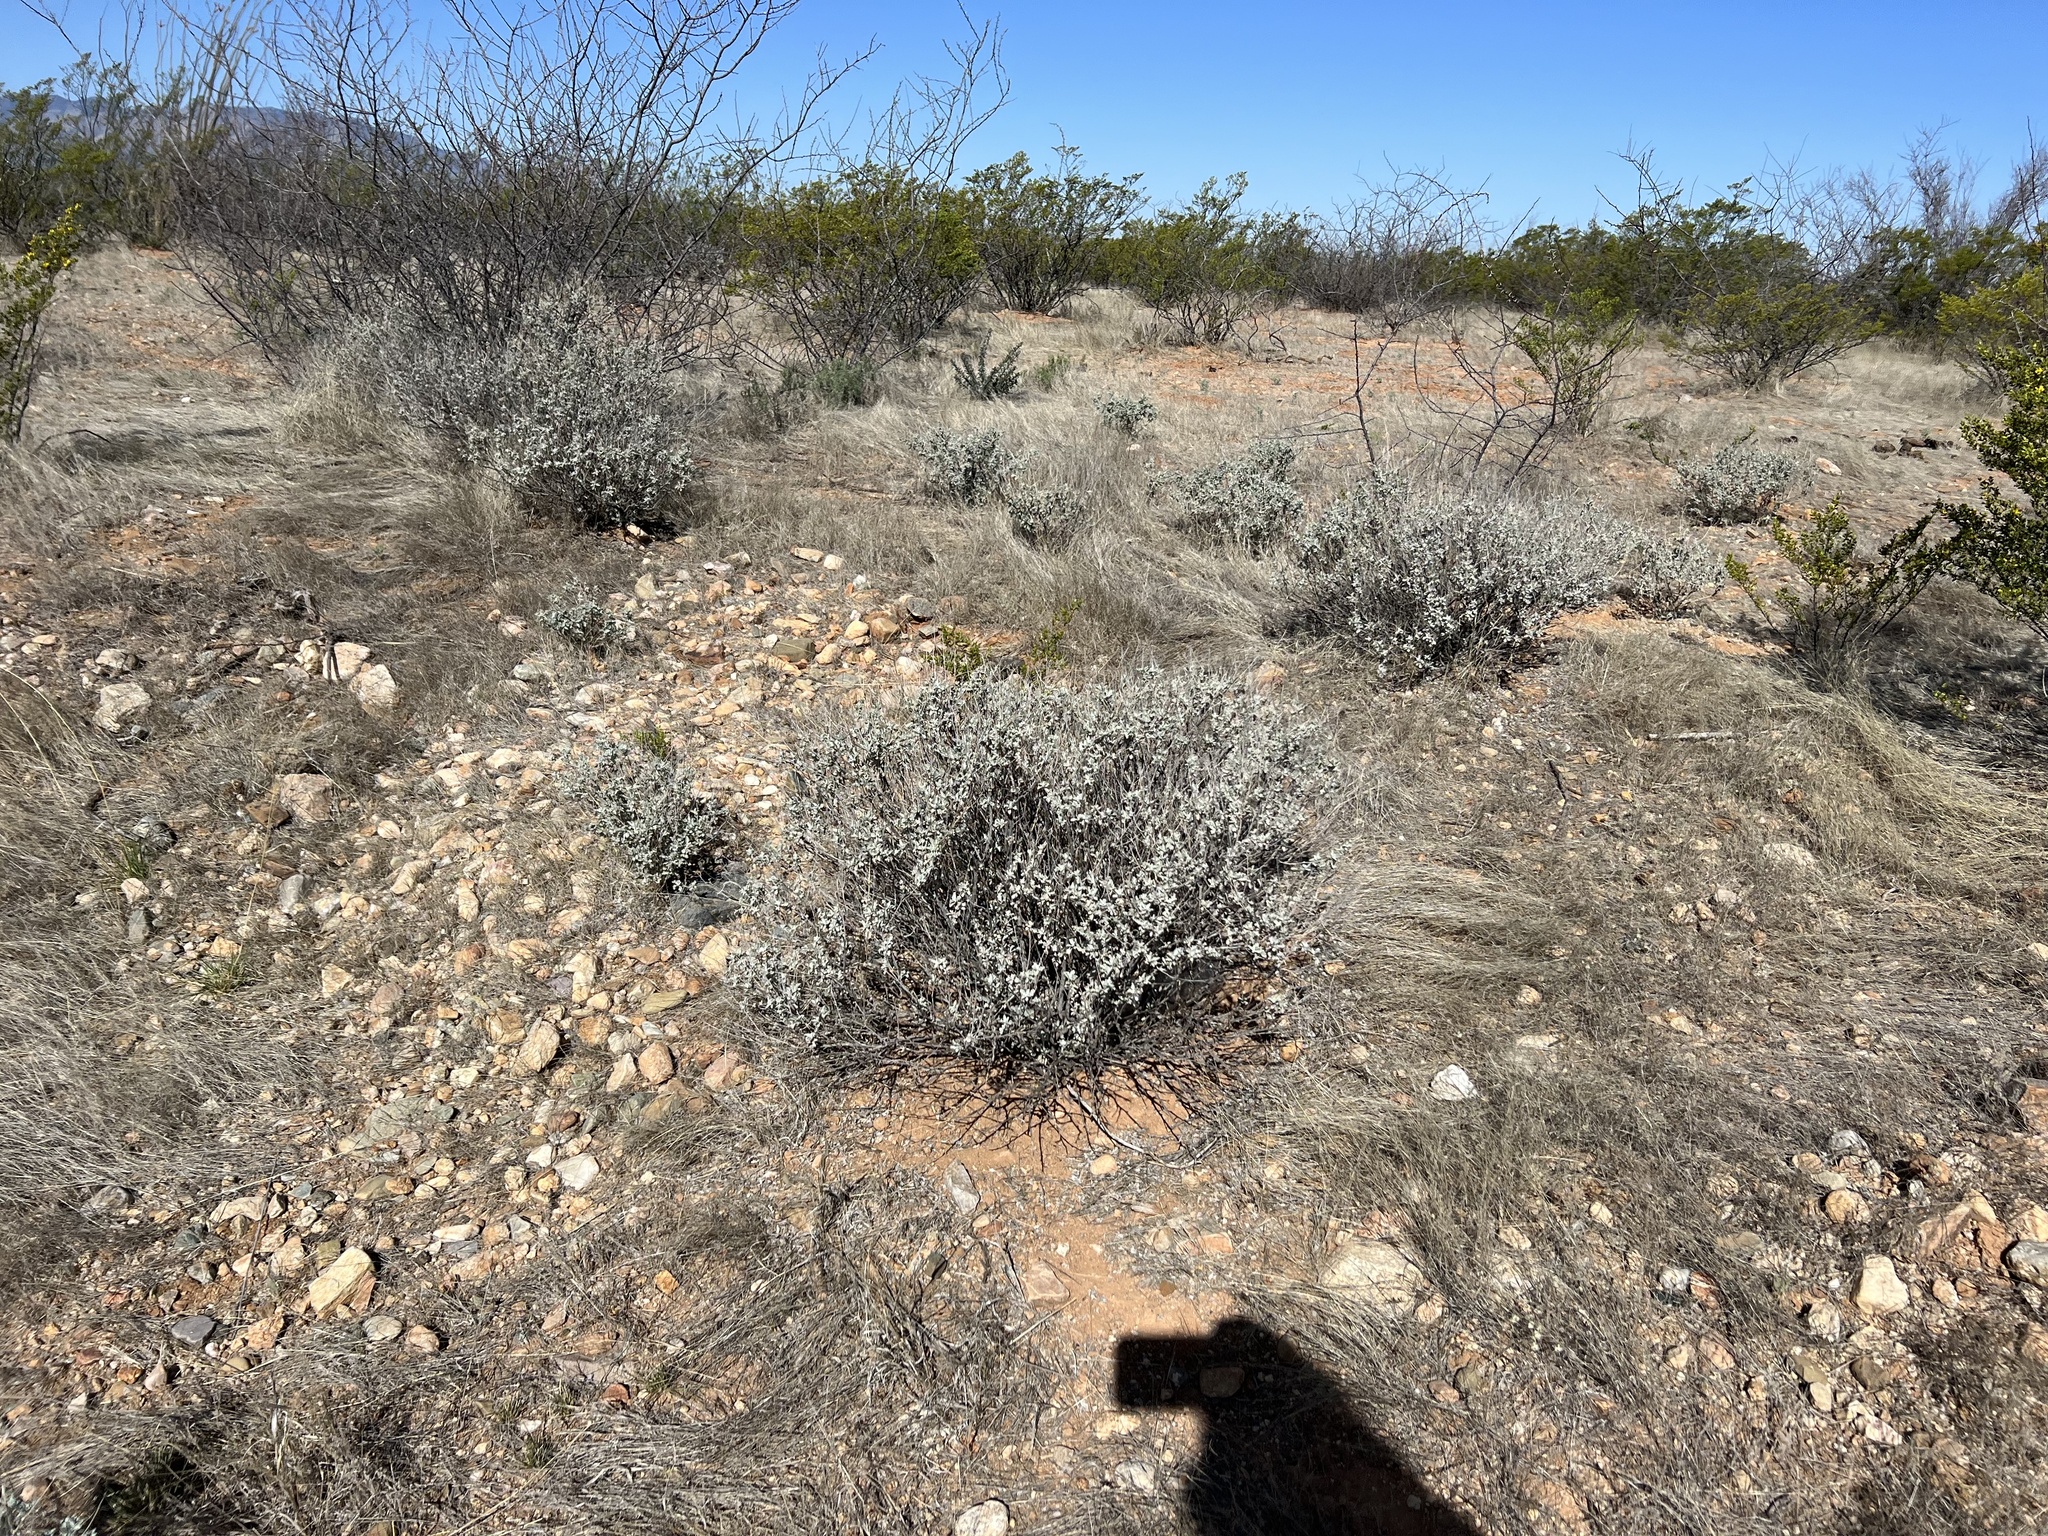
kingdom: Plantae
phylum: Tracheophyta
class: Magnoliopsida
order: Asterales
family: Asteraceae
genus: Parthenium
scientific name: Parthenium incanum
